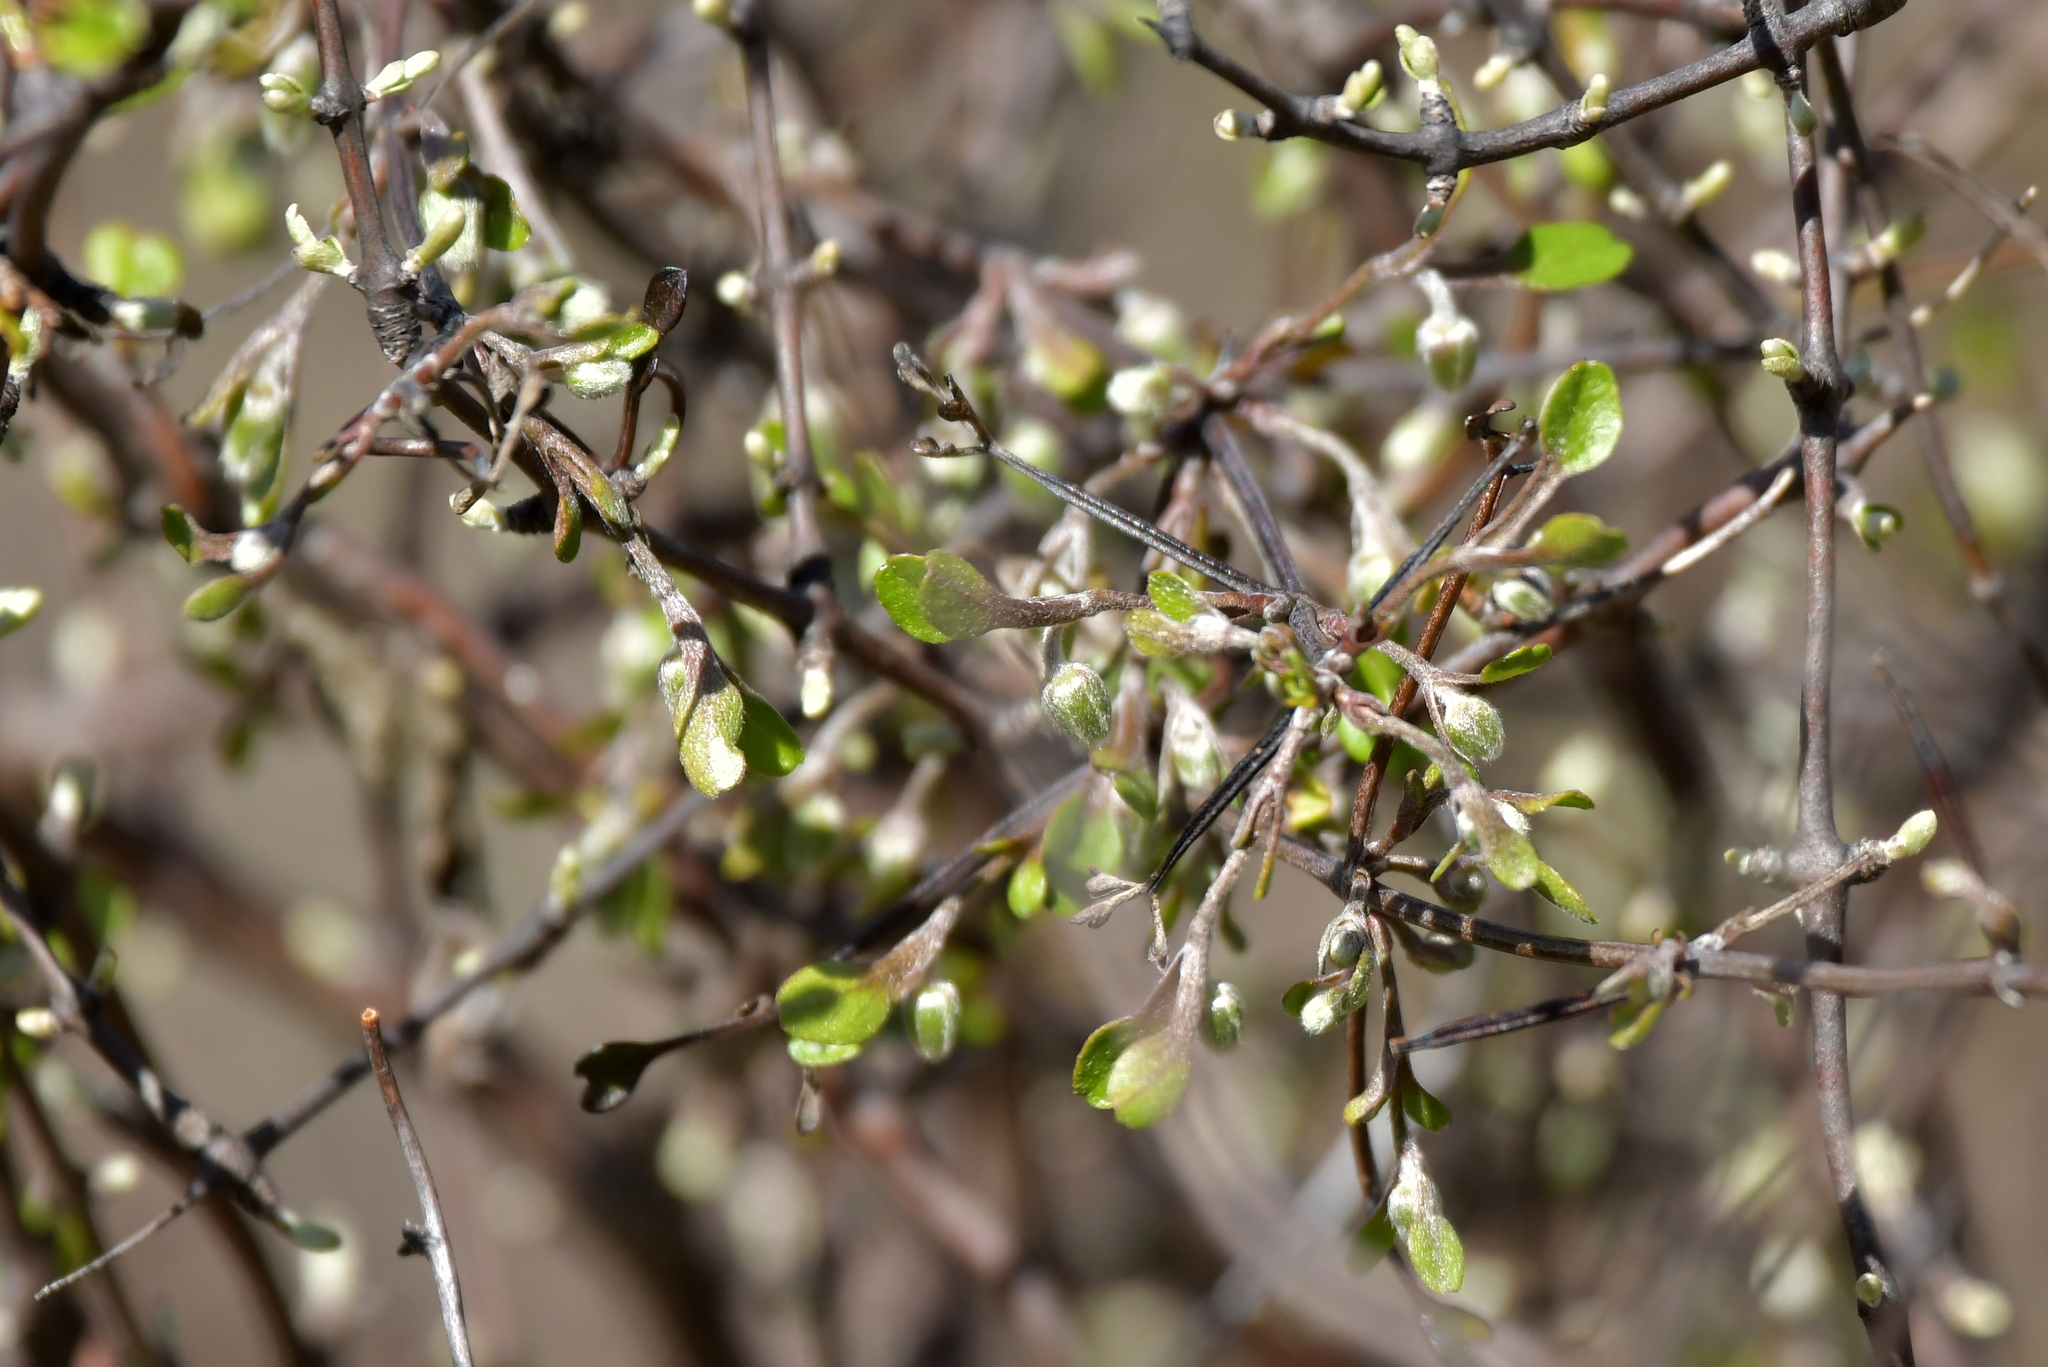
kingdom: Plantae
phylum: Tracheophyta
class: Magnoliopsida
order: Ranunculales
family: Ranunculaceae
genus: Clematis
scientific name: Clematis quadribracteolata
